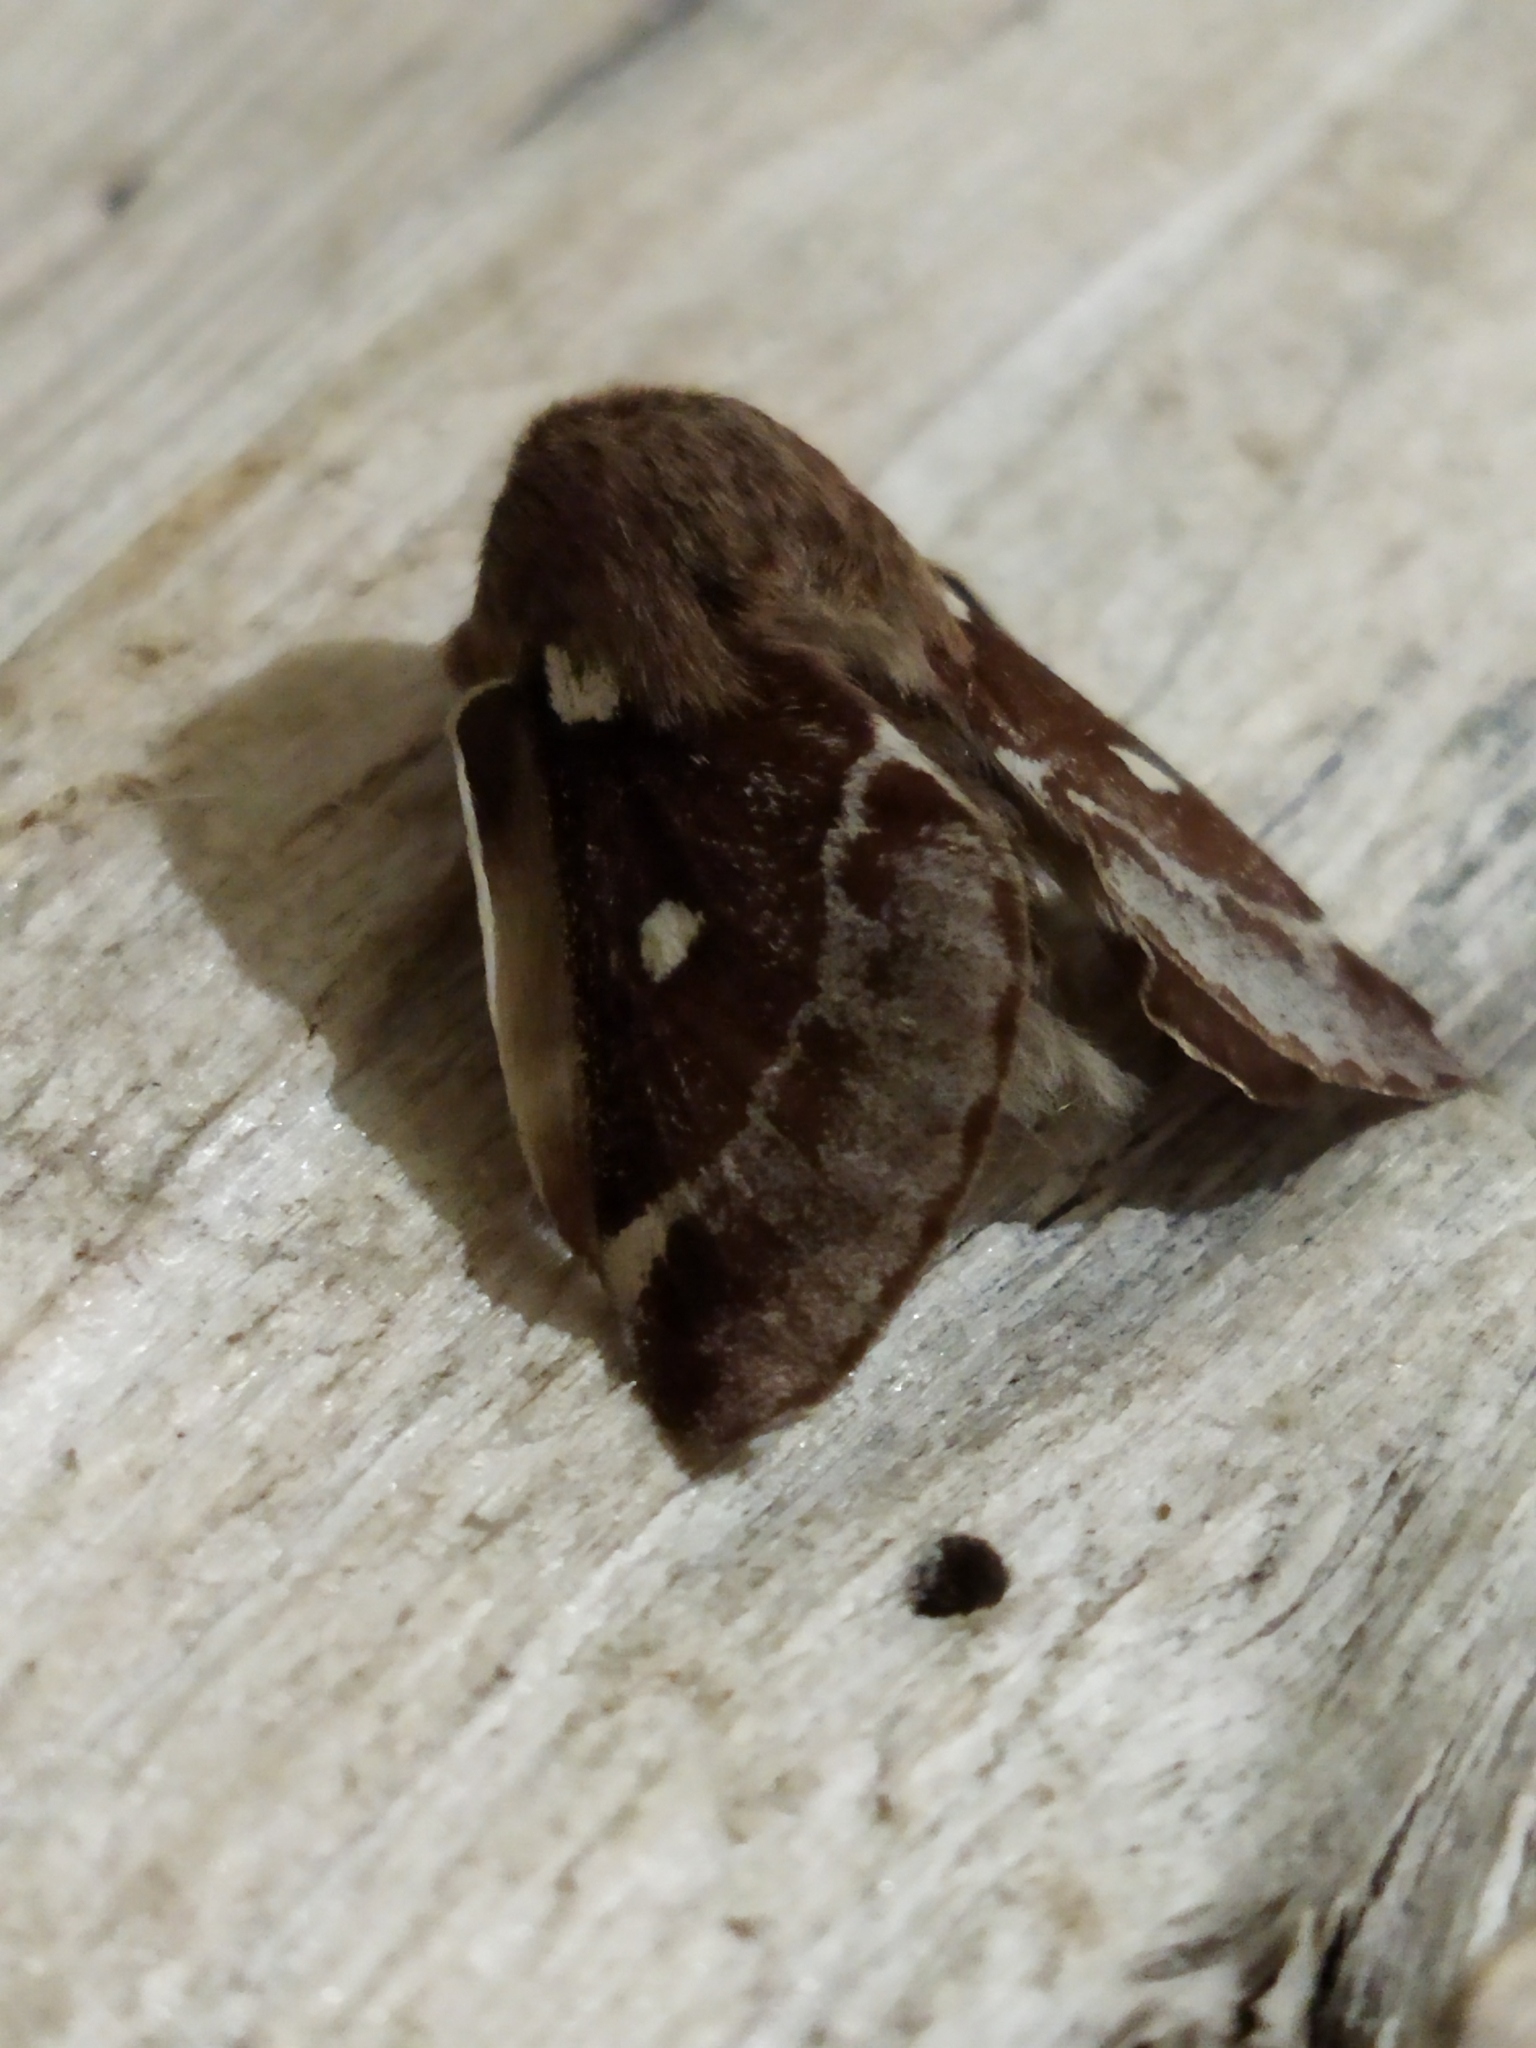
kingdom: Animalia
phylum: Arthropoda
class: Insecta
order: Lepidoptera
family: Lasiocampidae
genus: Eriogaster
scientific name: Eriogaster lanestris
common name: Small eggar
